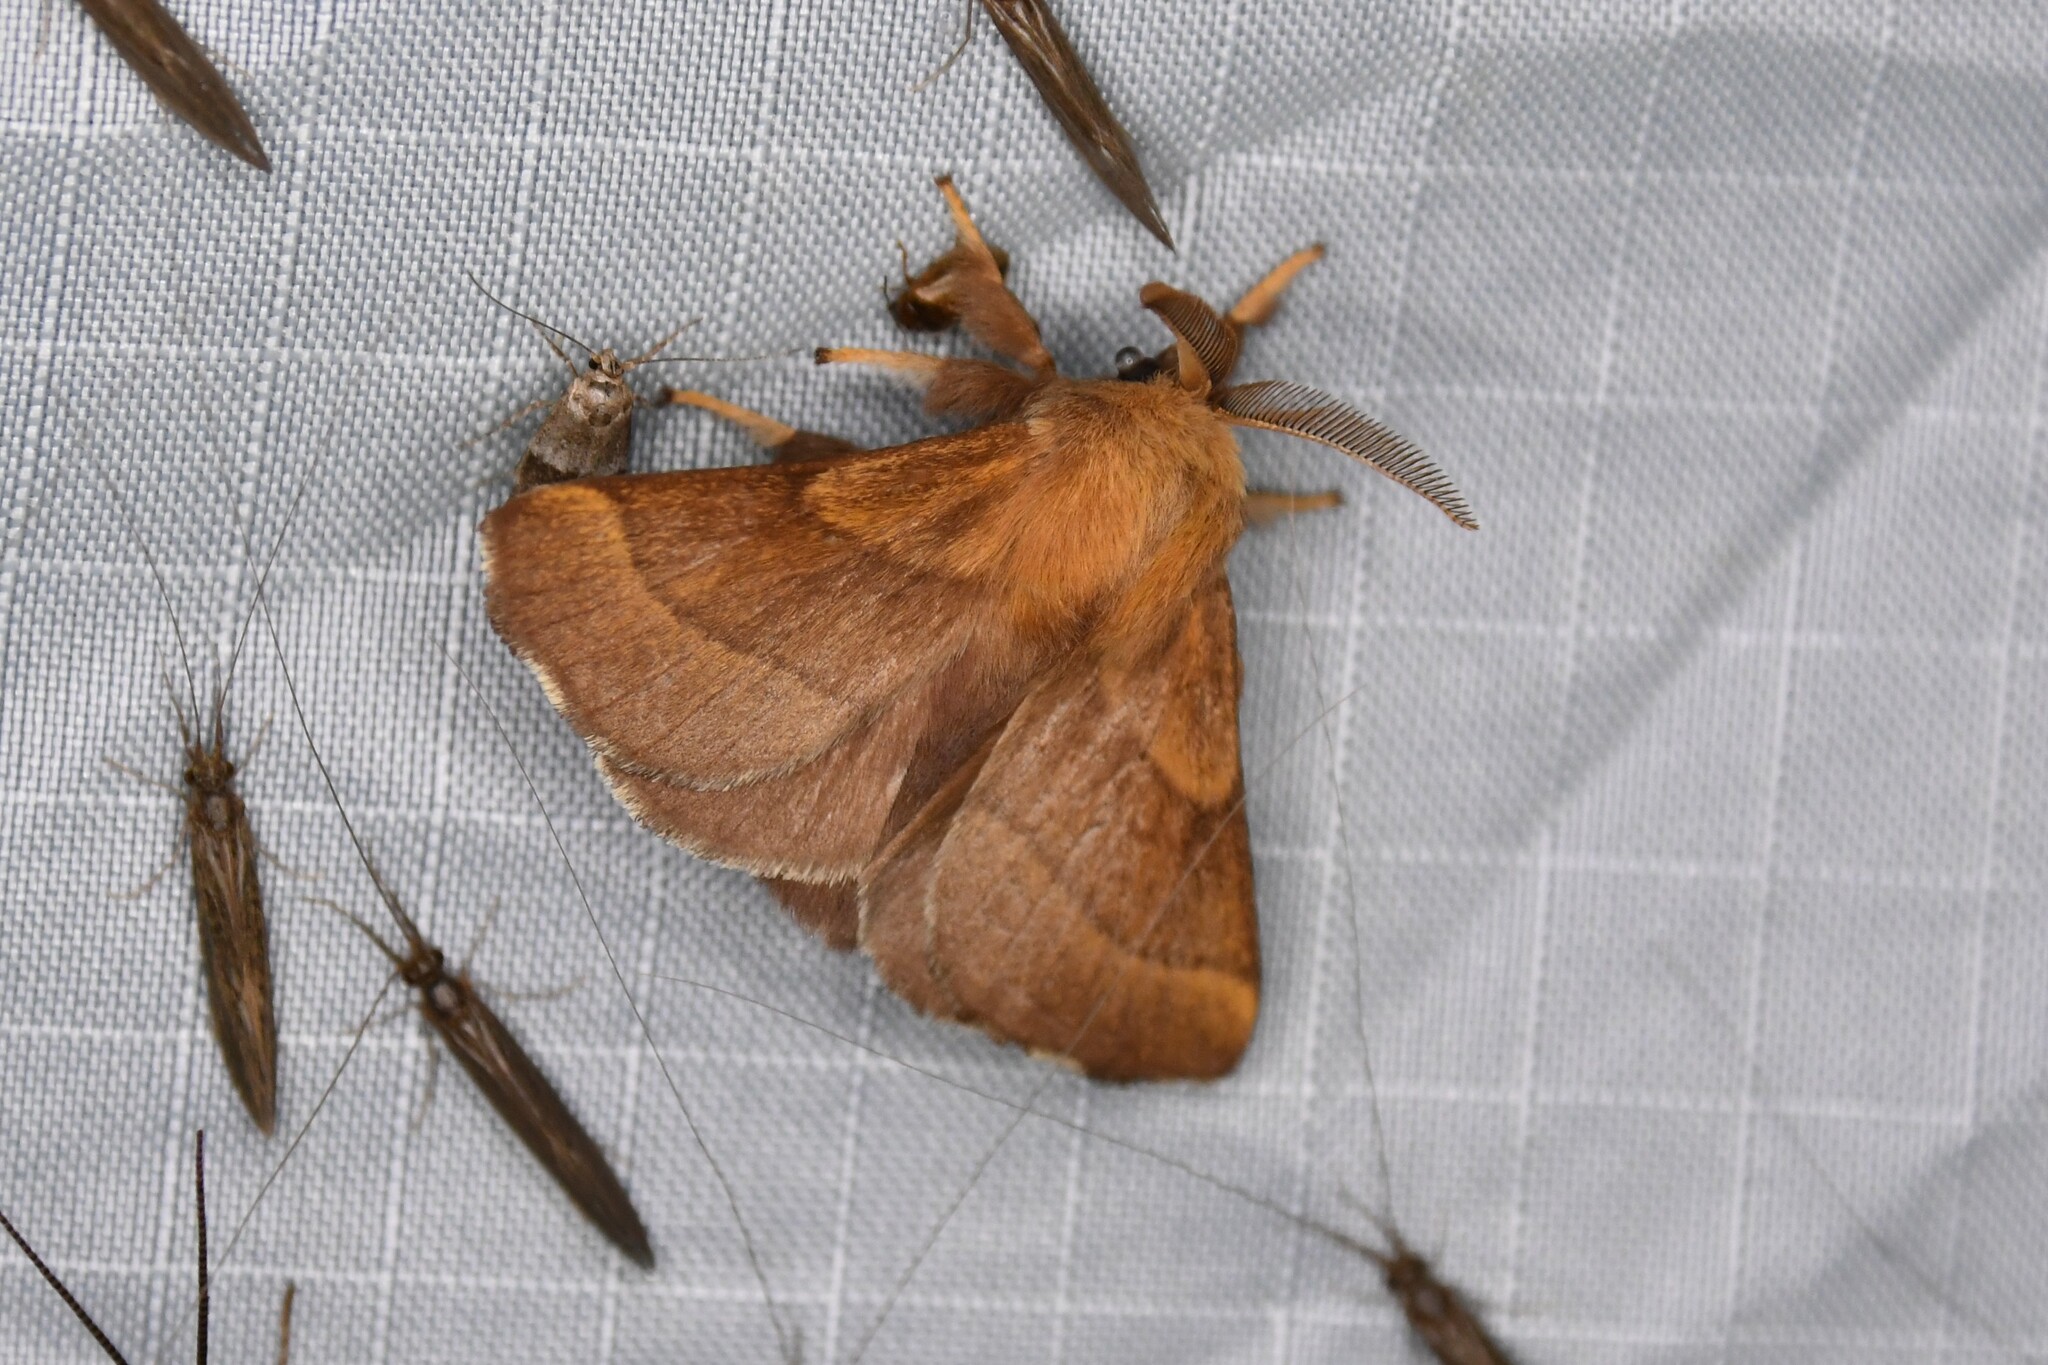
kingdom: Animalia
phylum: Arthropoda
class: Insecta
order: Lepidoptera
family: Lasiocampidae
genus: Malacosoma
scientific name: Malacosoma disstria
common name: Forest tent caterpillar
